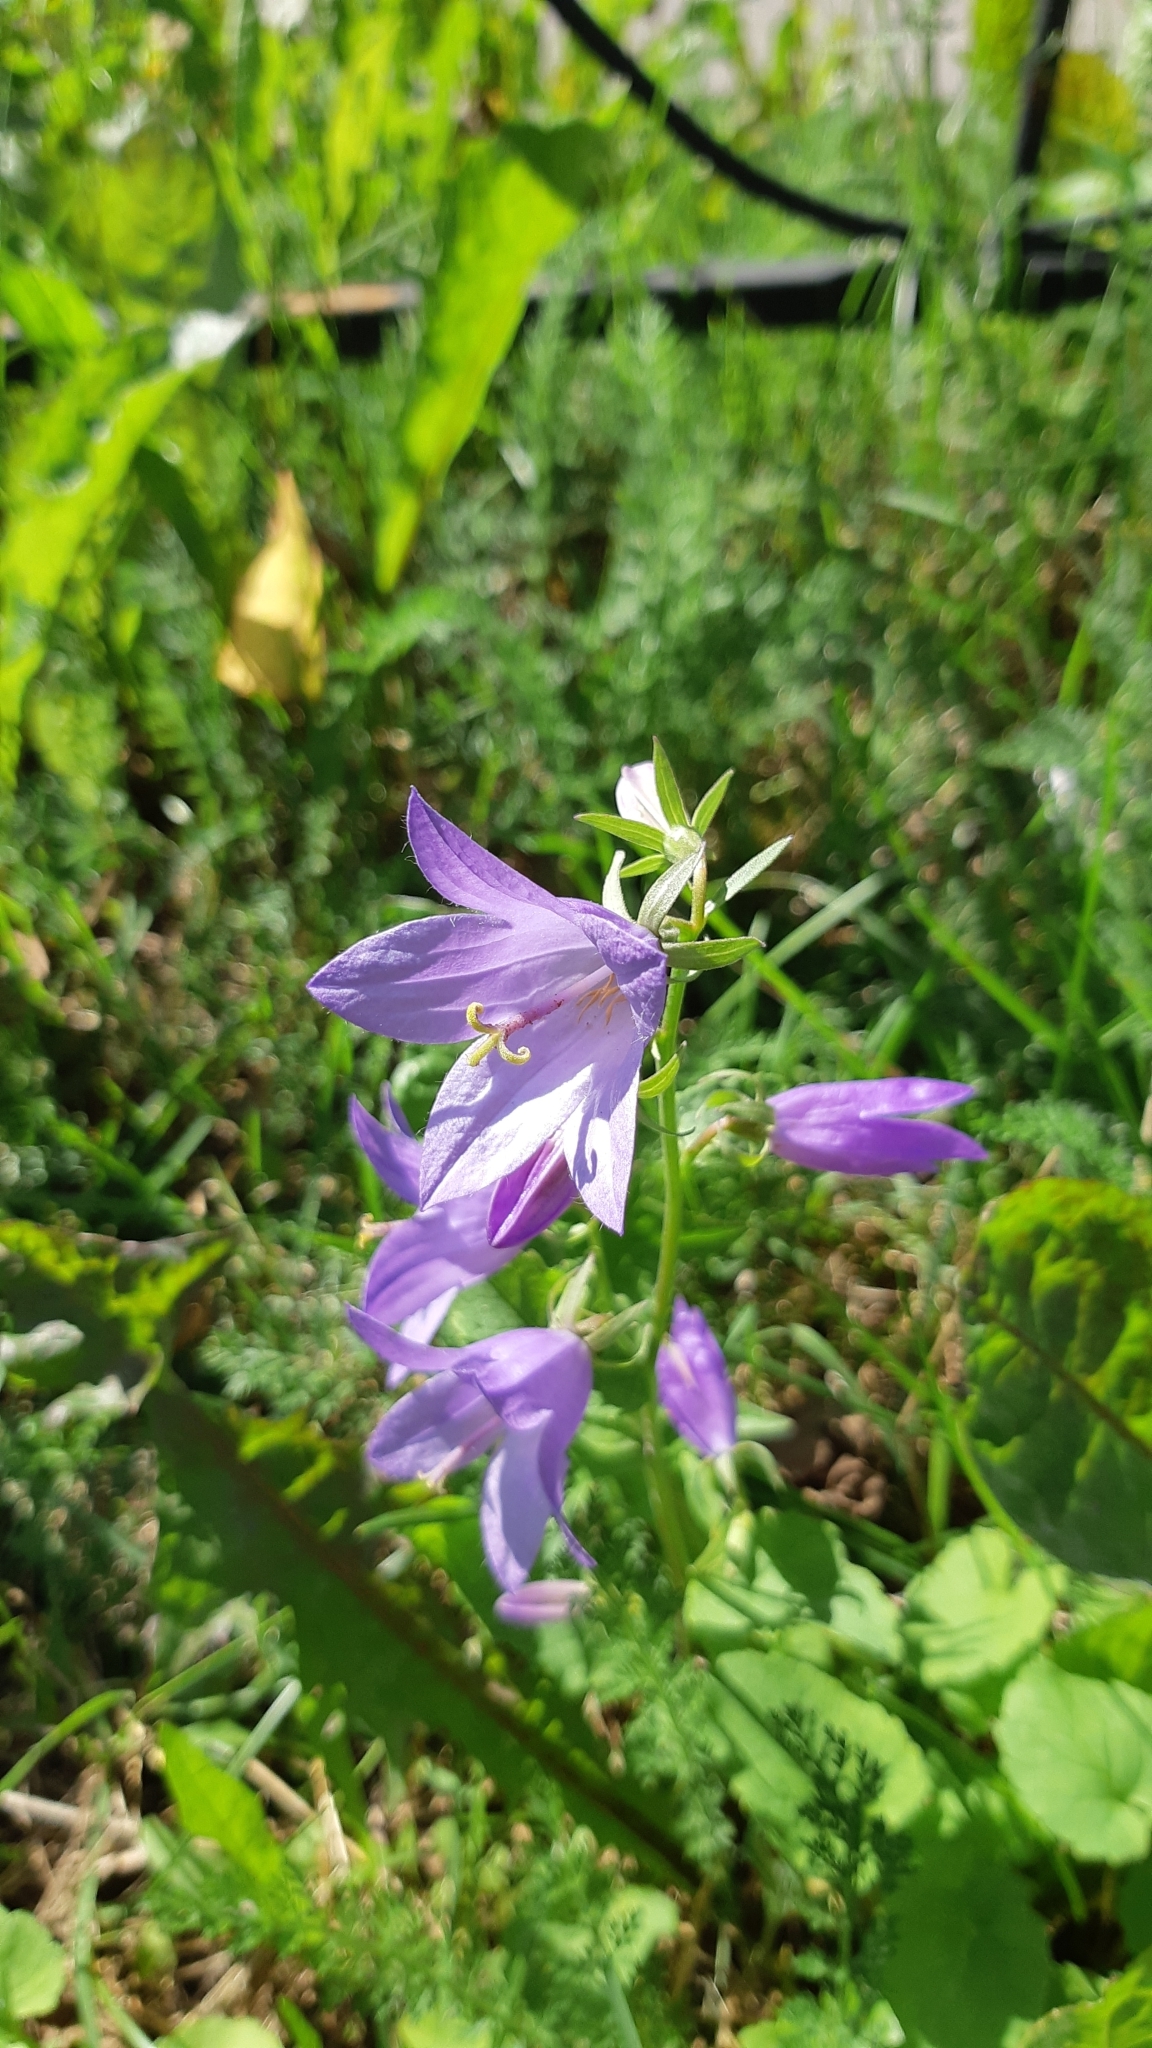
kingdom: Plantae
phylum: Tracheophyta
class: Magnoliopsida
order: Asterales
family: Campanulaceae
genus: Campanula
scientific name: Campanula rapunculoides
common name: Creeping bellflower
